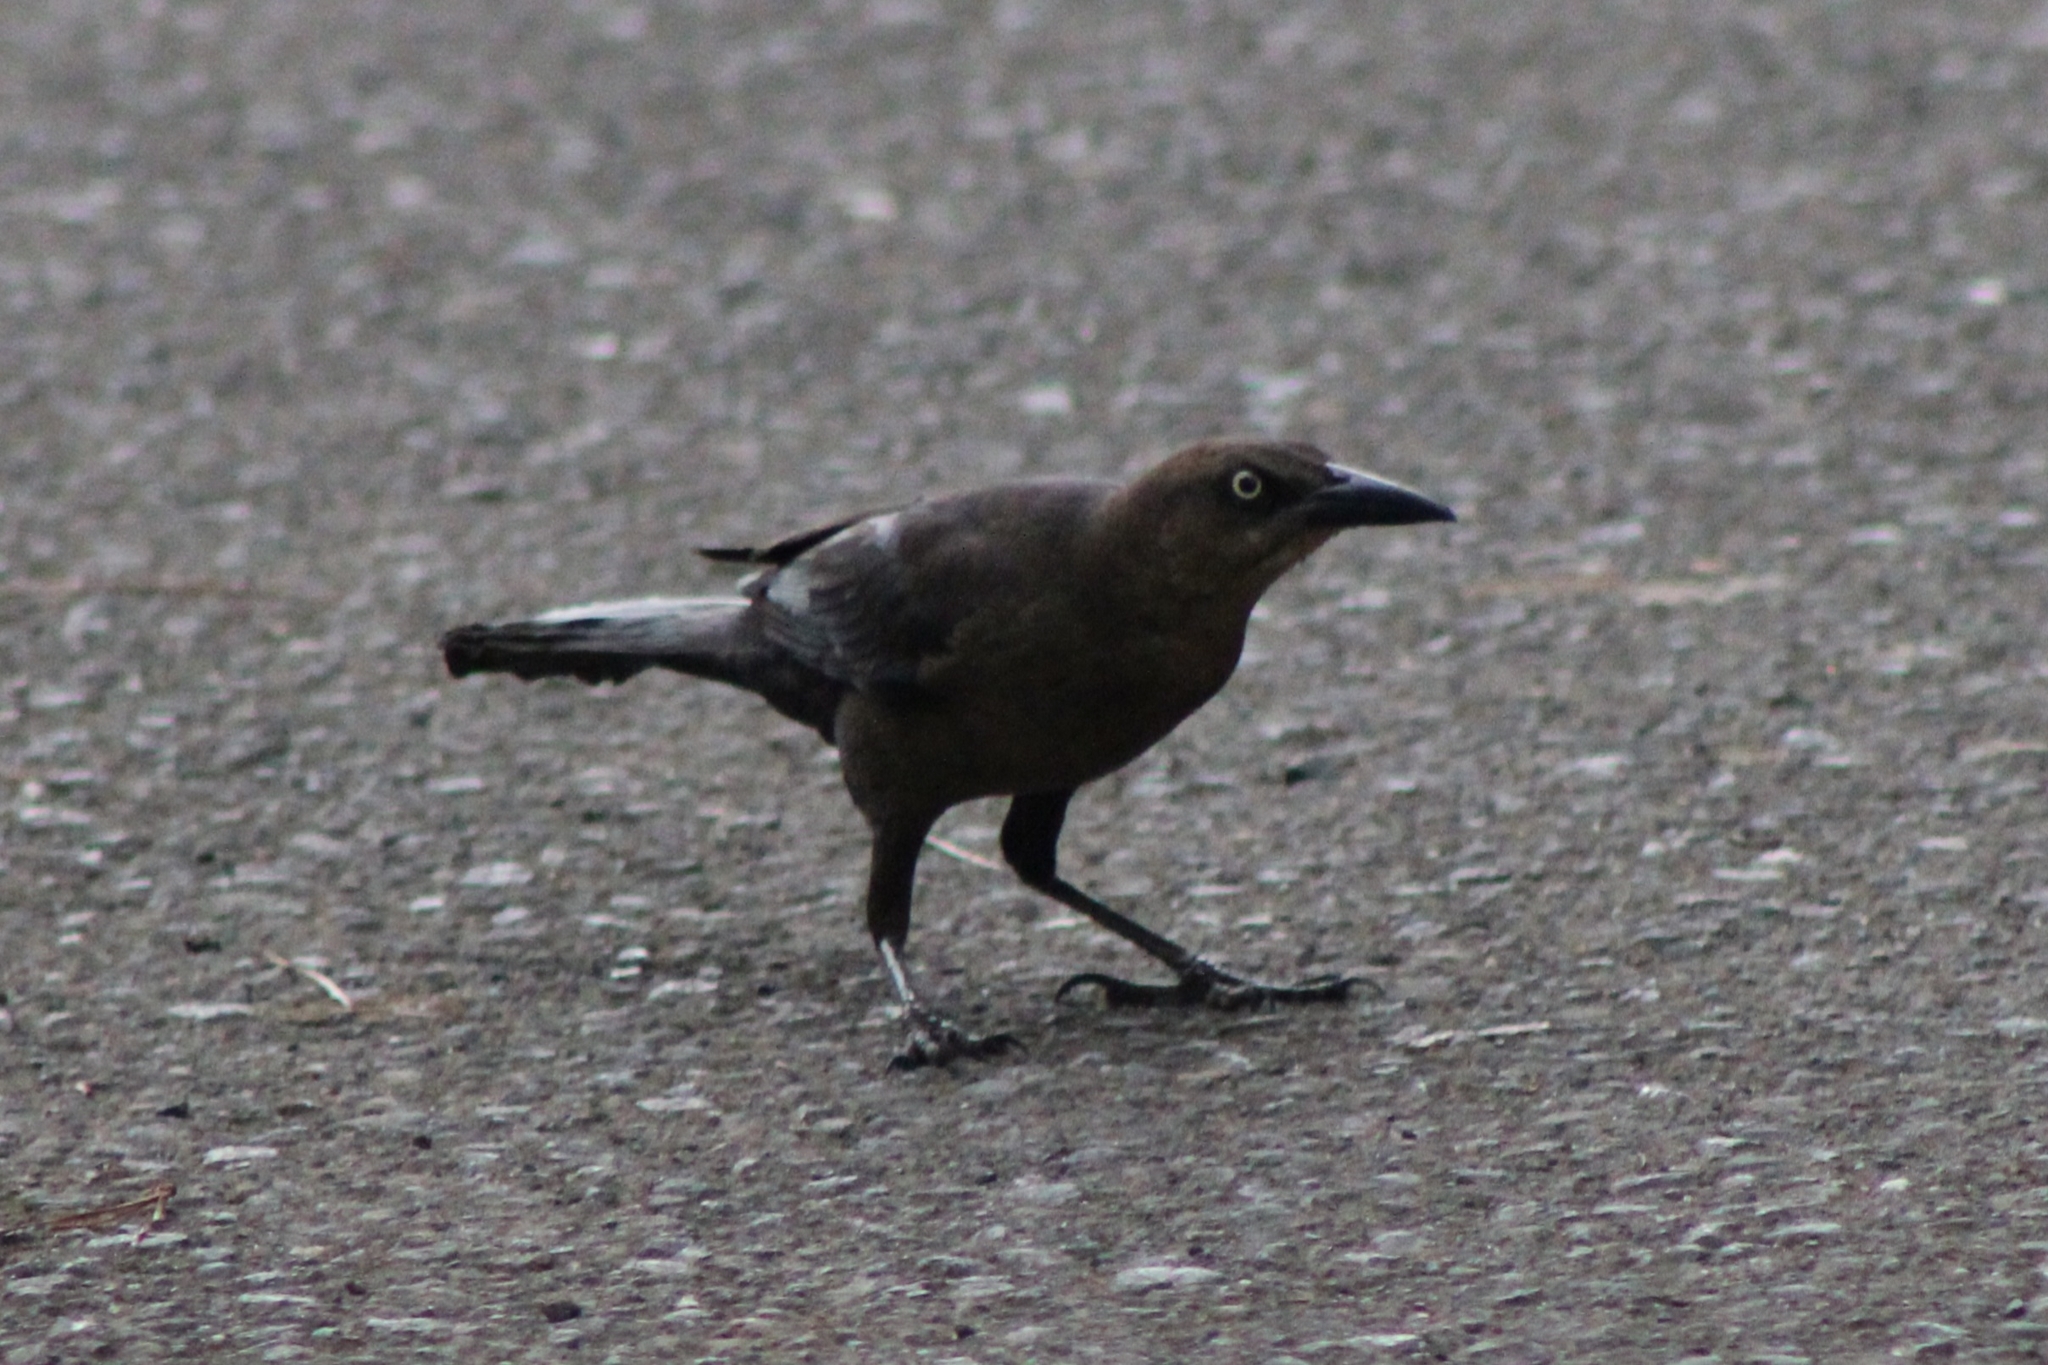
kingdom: Animalia
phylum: Chordata
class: Aves
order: Passeriformes
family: Icteridae
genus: Quiscalus
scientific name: Quiscalus mexicanus
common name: Great-tailed grackle
